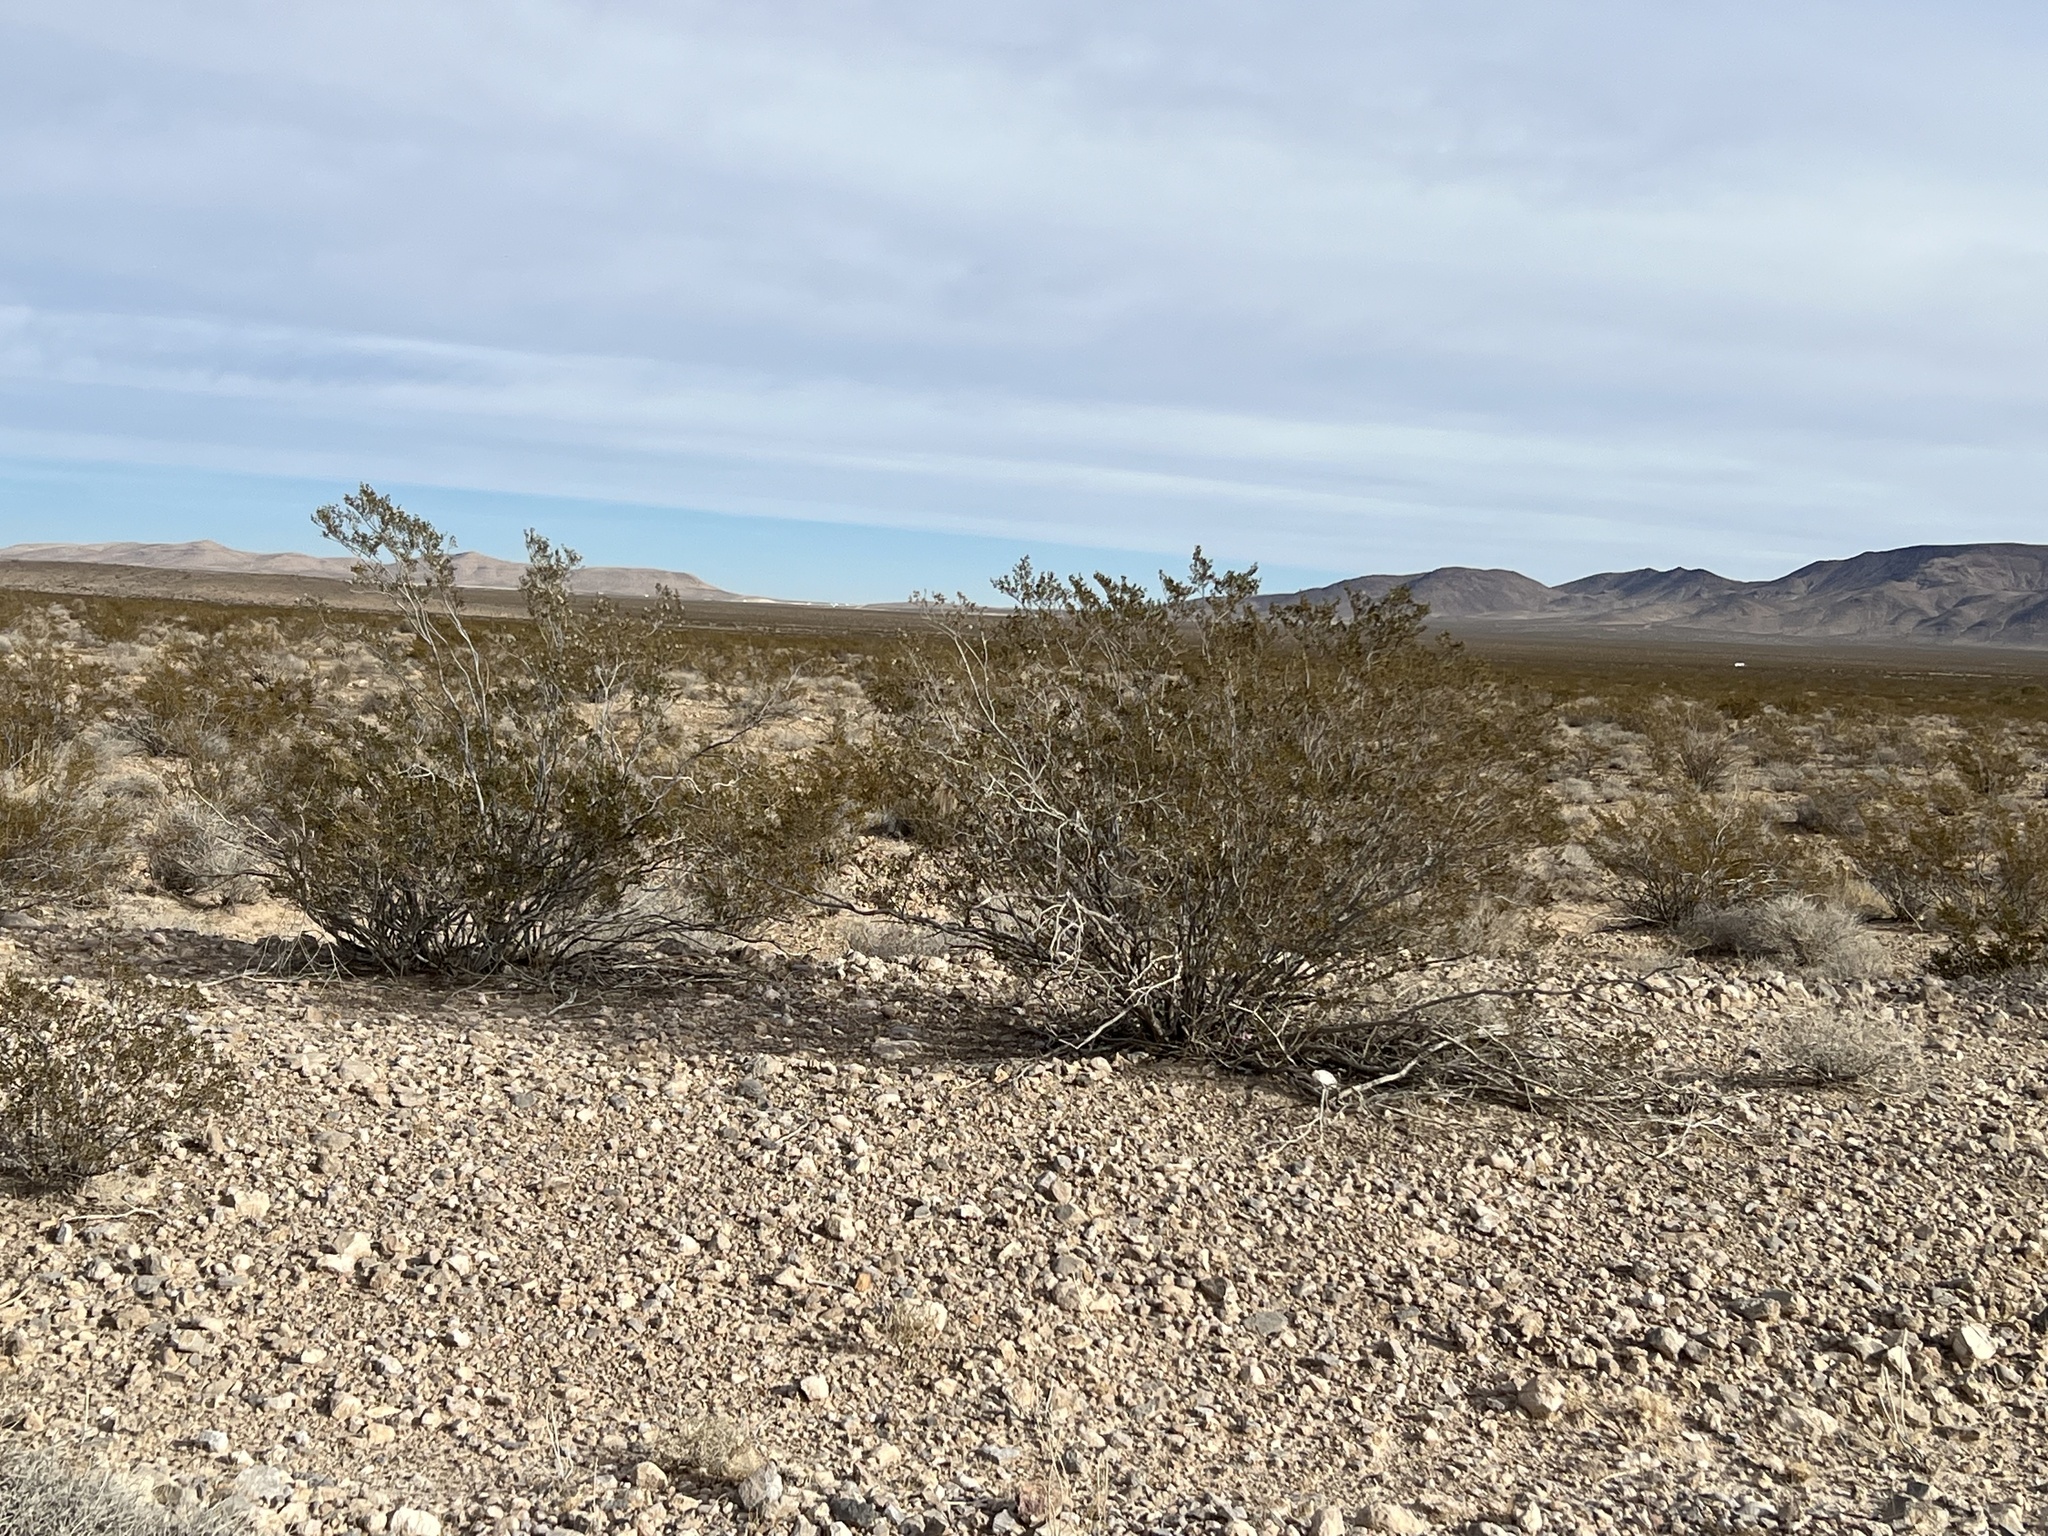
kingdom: Plantae
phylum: Tracheophyta
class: Magnoliopsida
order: Zygophyllales
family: Zygophyllaceae
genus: Larrea
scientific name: Larrea tridentata
